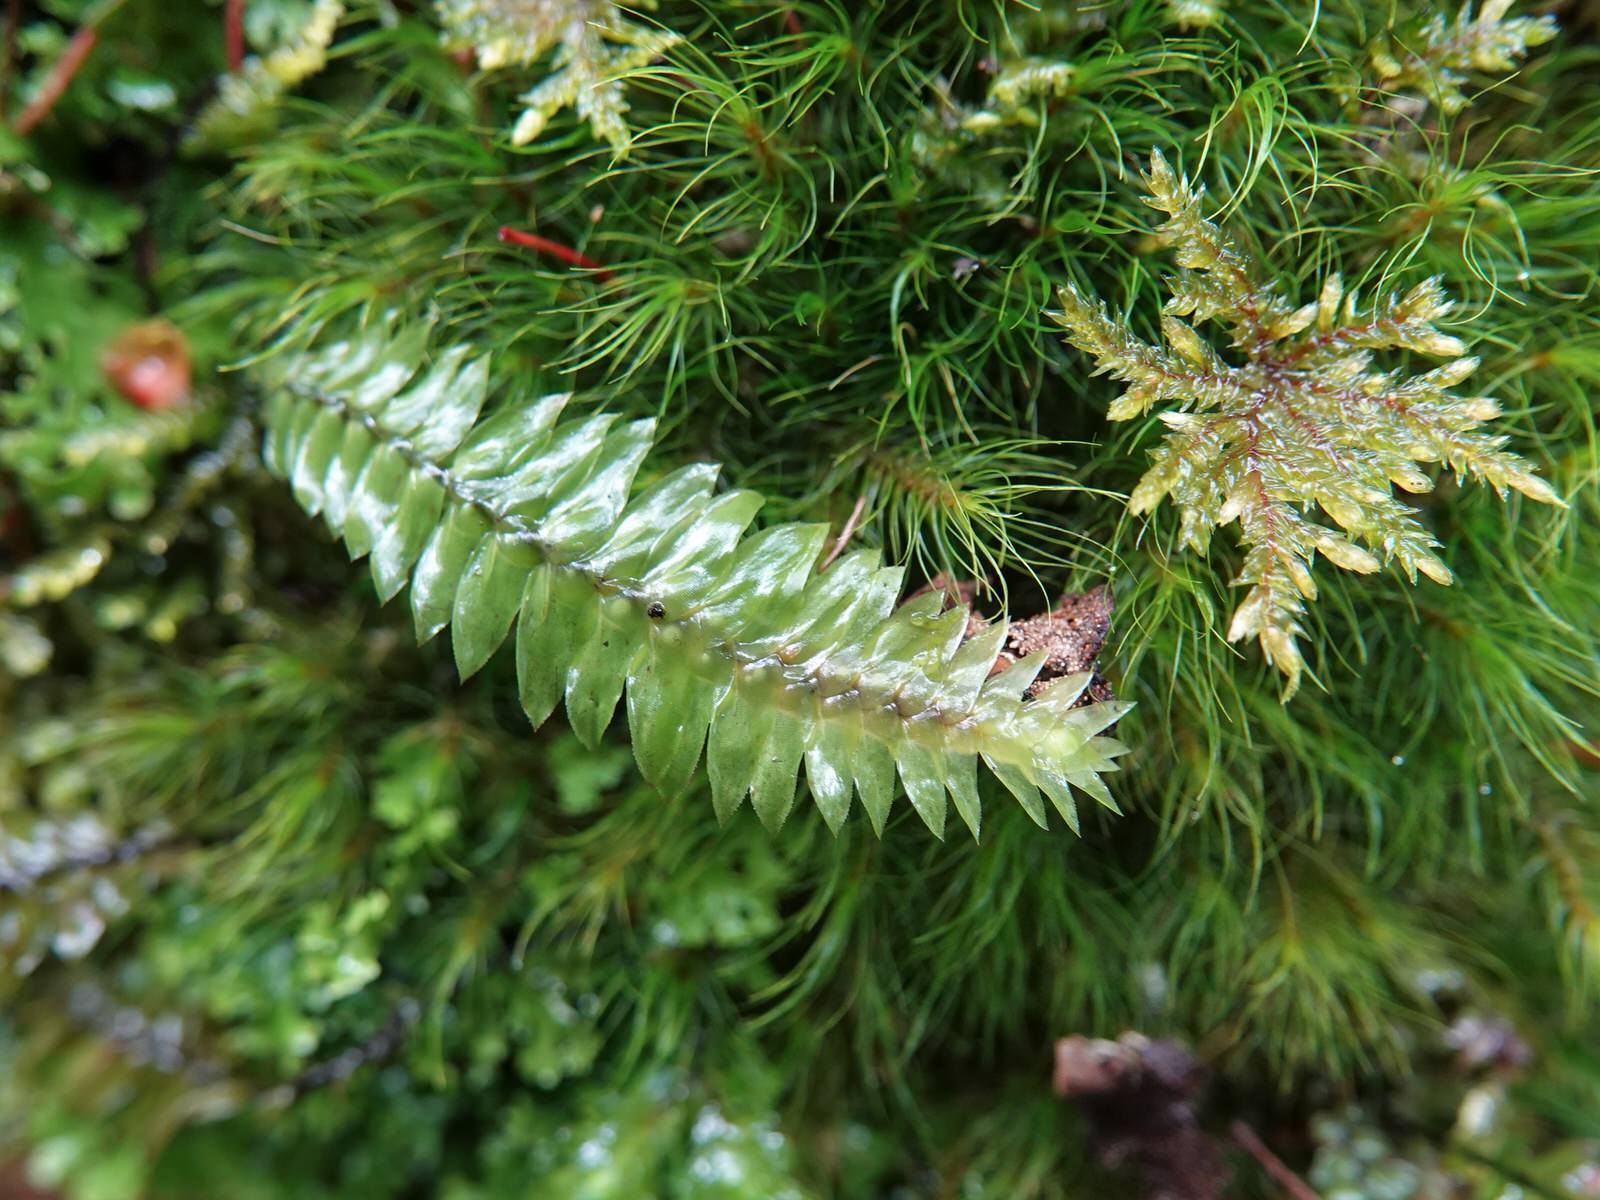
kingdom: Plantae
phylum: Bryophyta
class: Bryopsida
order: Hypopterygiales
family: Hypopterygiaceae
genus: Cyathophorum
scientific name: Cyathophorum bulbosum
